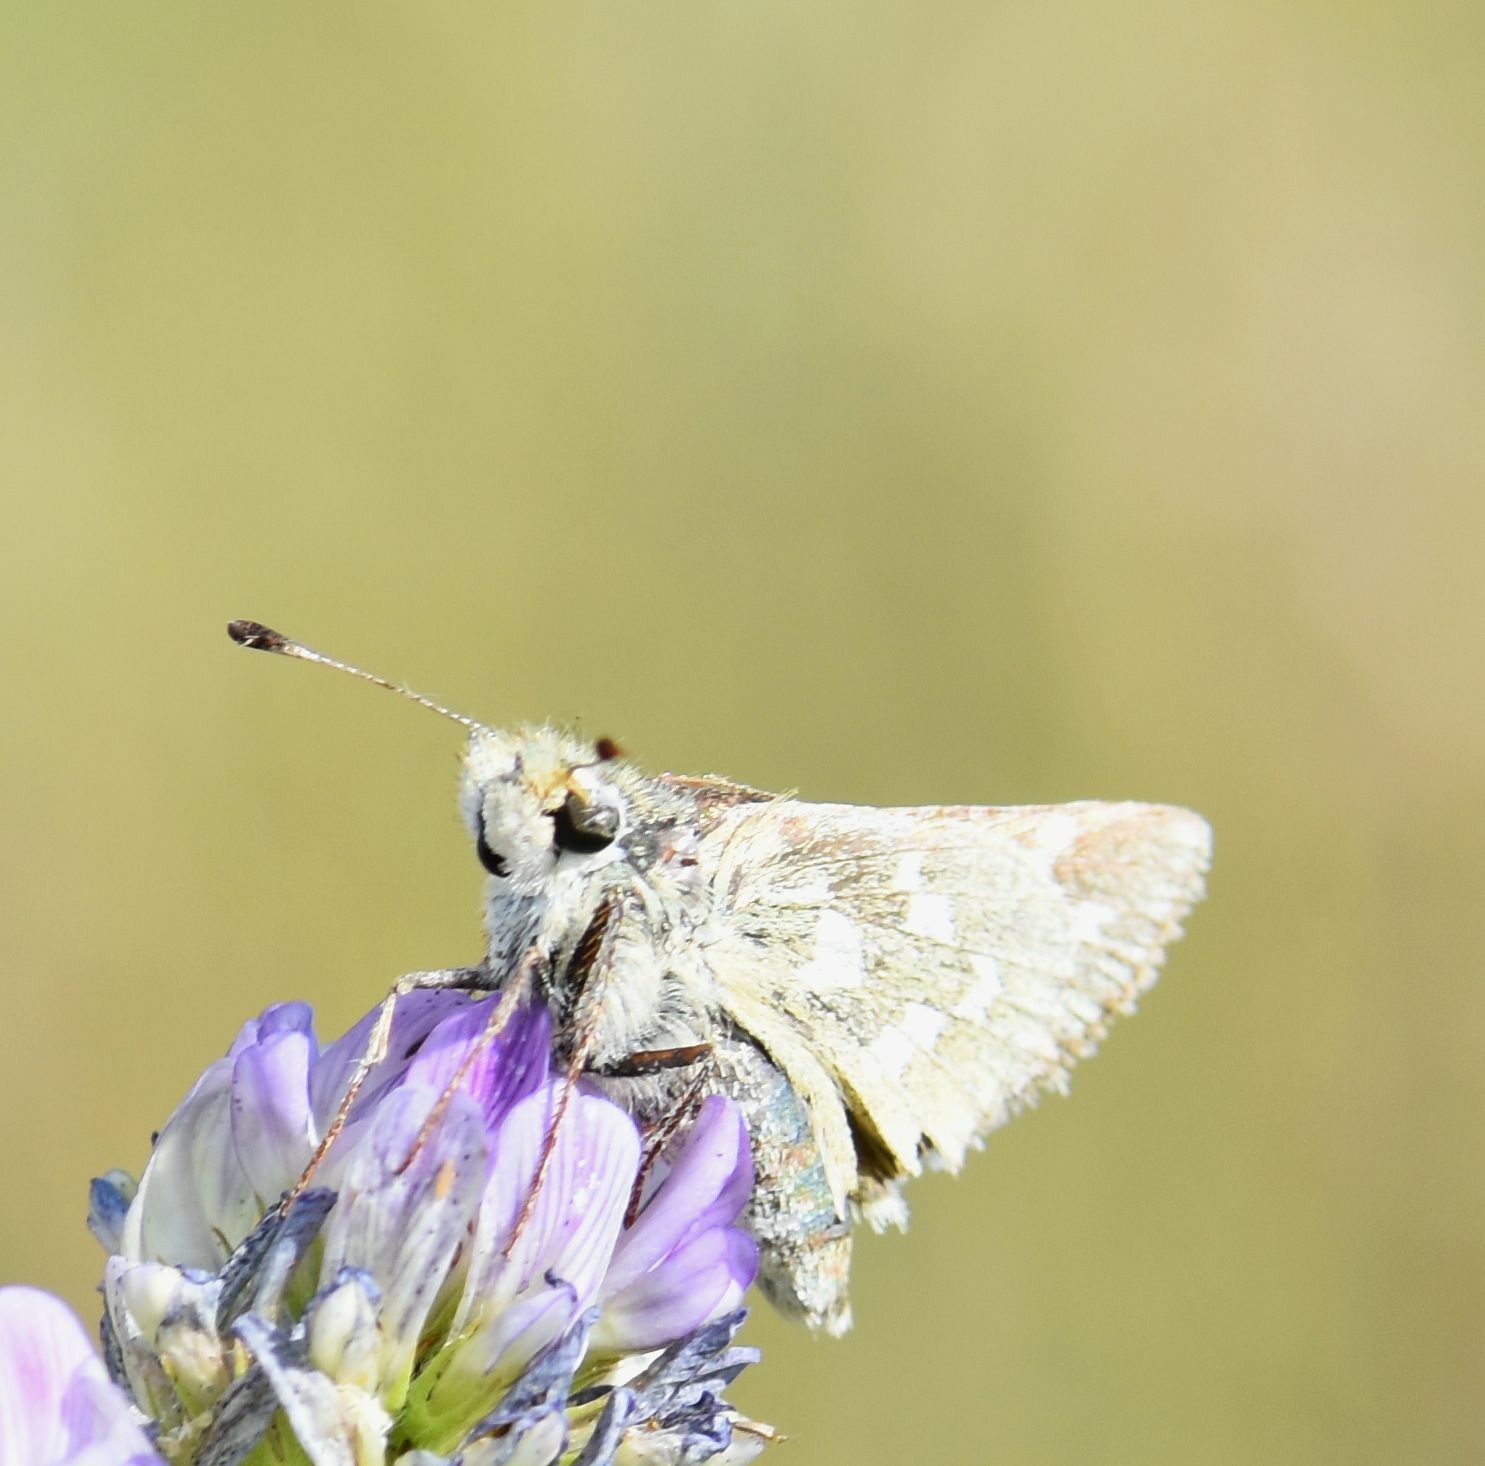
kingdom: Animalia
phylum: Arthropoda
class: Insecta
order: Lepidoptera
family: Hesperiidae
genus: Hesperia
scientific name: Hesperia comma
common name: Common branded skipper
